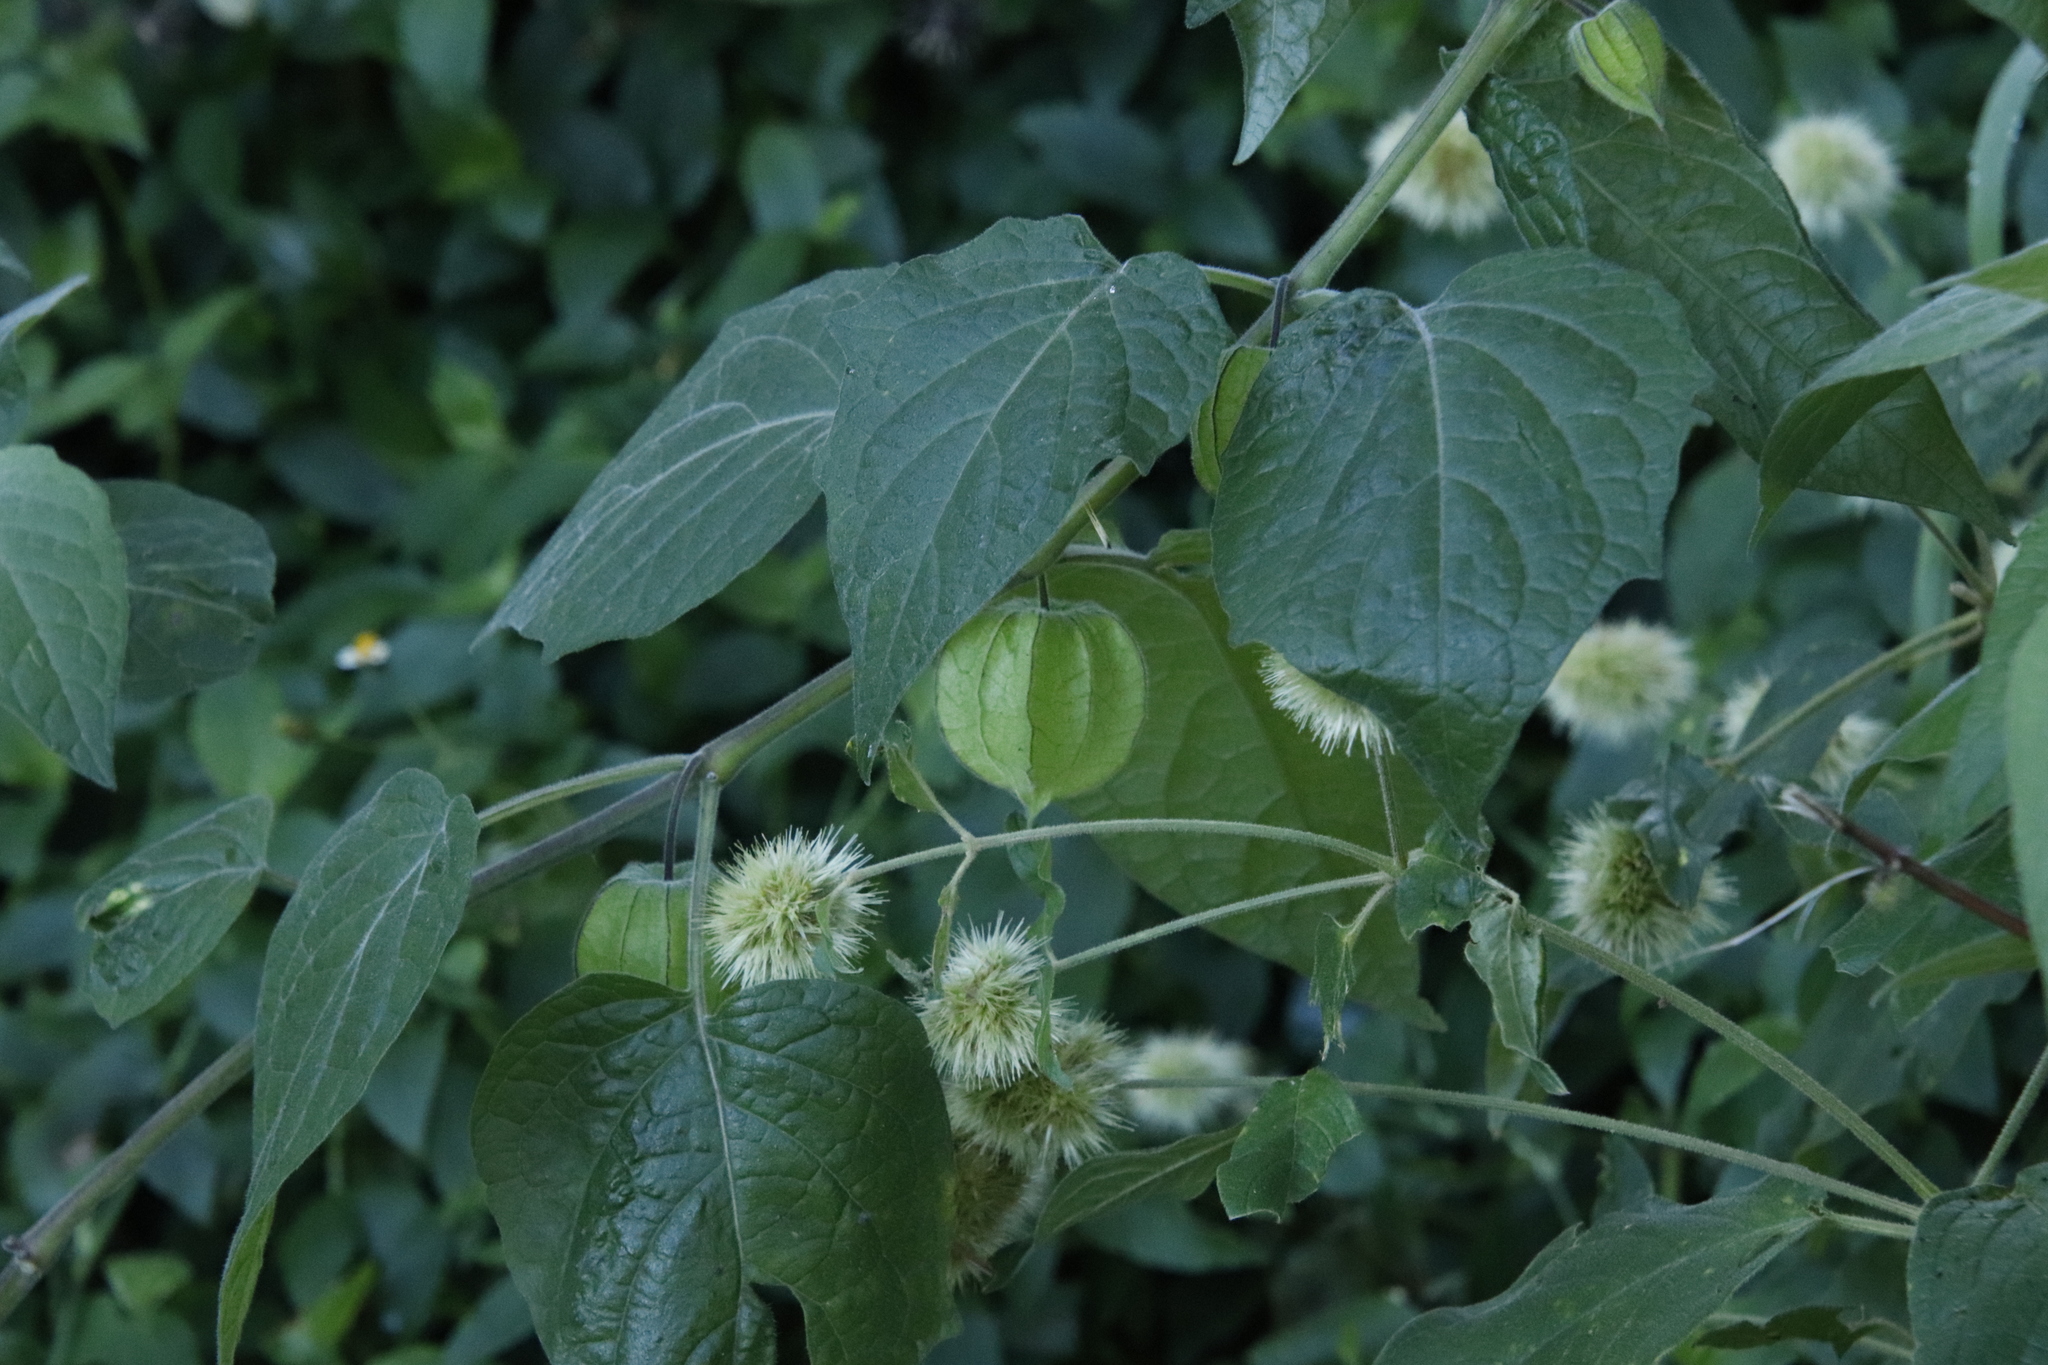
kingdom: Plantae
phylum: Tracheophyta
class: Magnoliopsida
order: Caryophyllales
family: Amaranthaceae
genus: Cyathula
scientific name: Cyathula uncinulata
